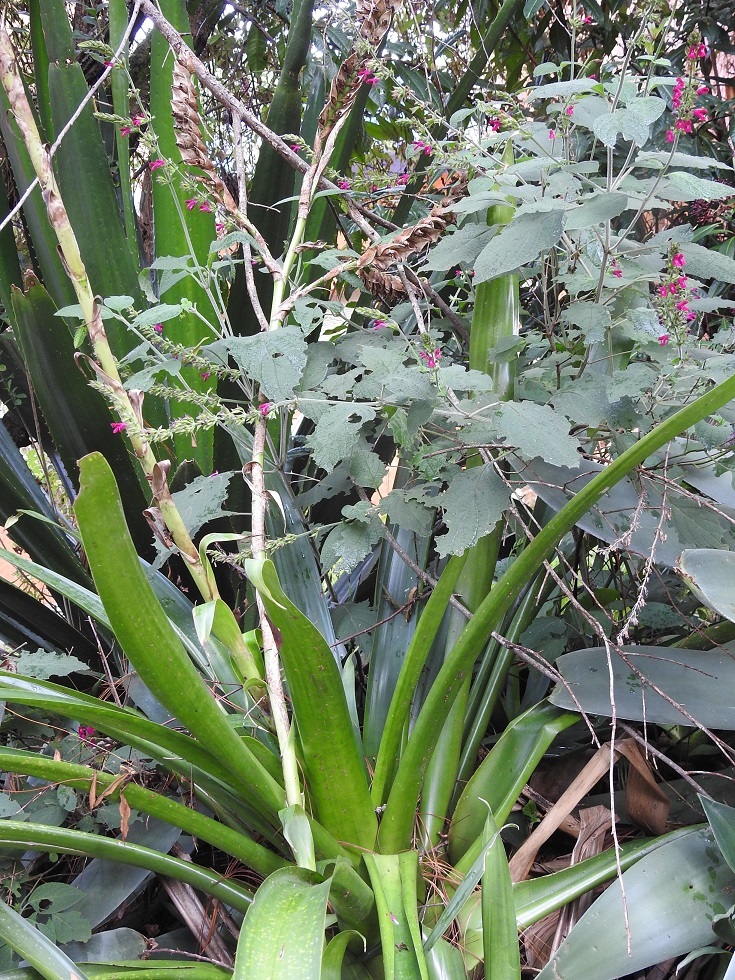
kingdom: Plantae
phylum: Tracheophyta
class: Liliopsida
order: Poales
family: Bromeliaceae
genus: Werauhia
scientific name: Werauhia werckleana
